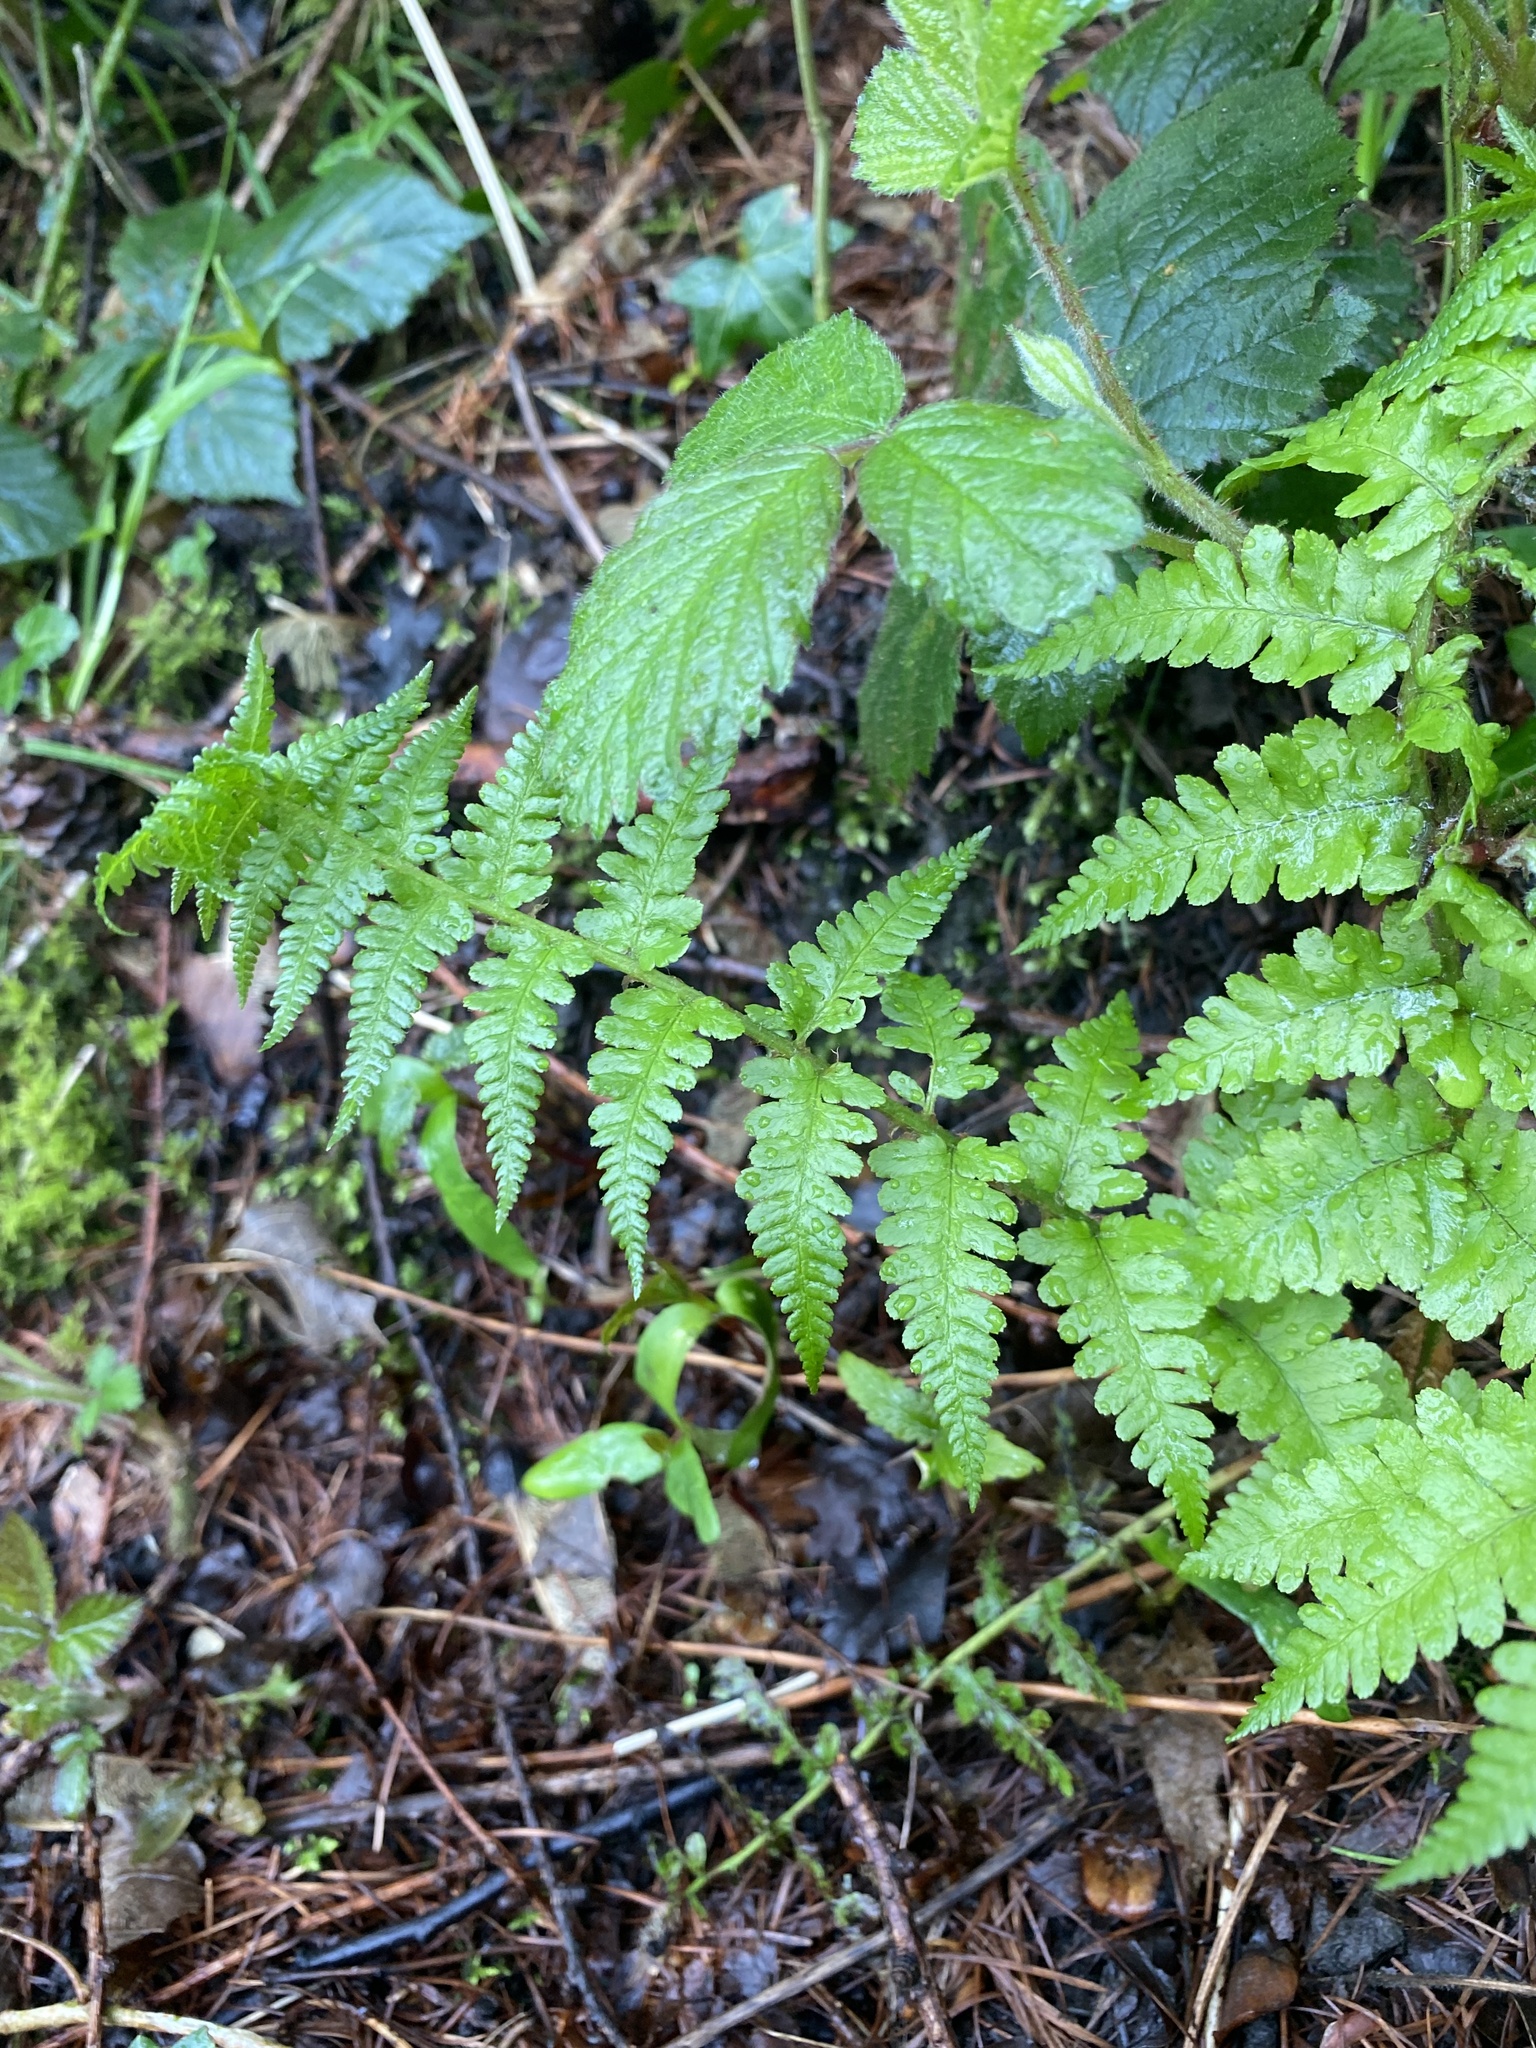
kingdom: Plantae
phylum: Tracheophyta
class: Polypodiopsida
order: Polypodiales
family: Dryopteridaceae
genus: Dryopteris
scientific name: Dryopteris filix-mas
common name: Male fern
